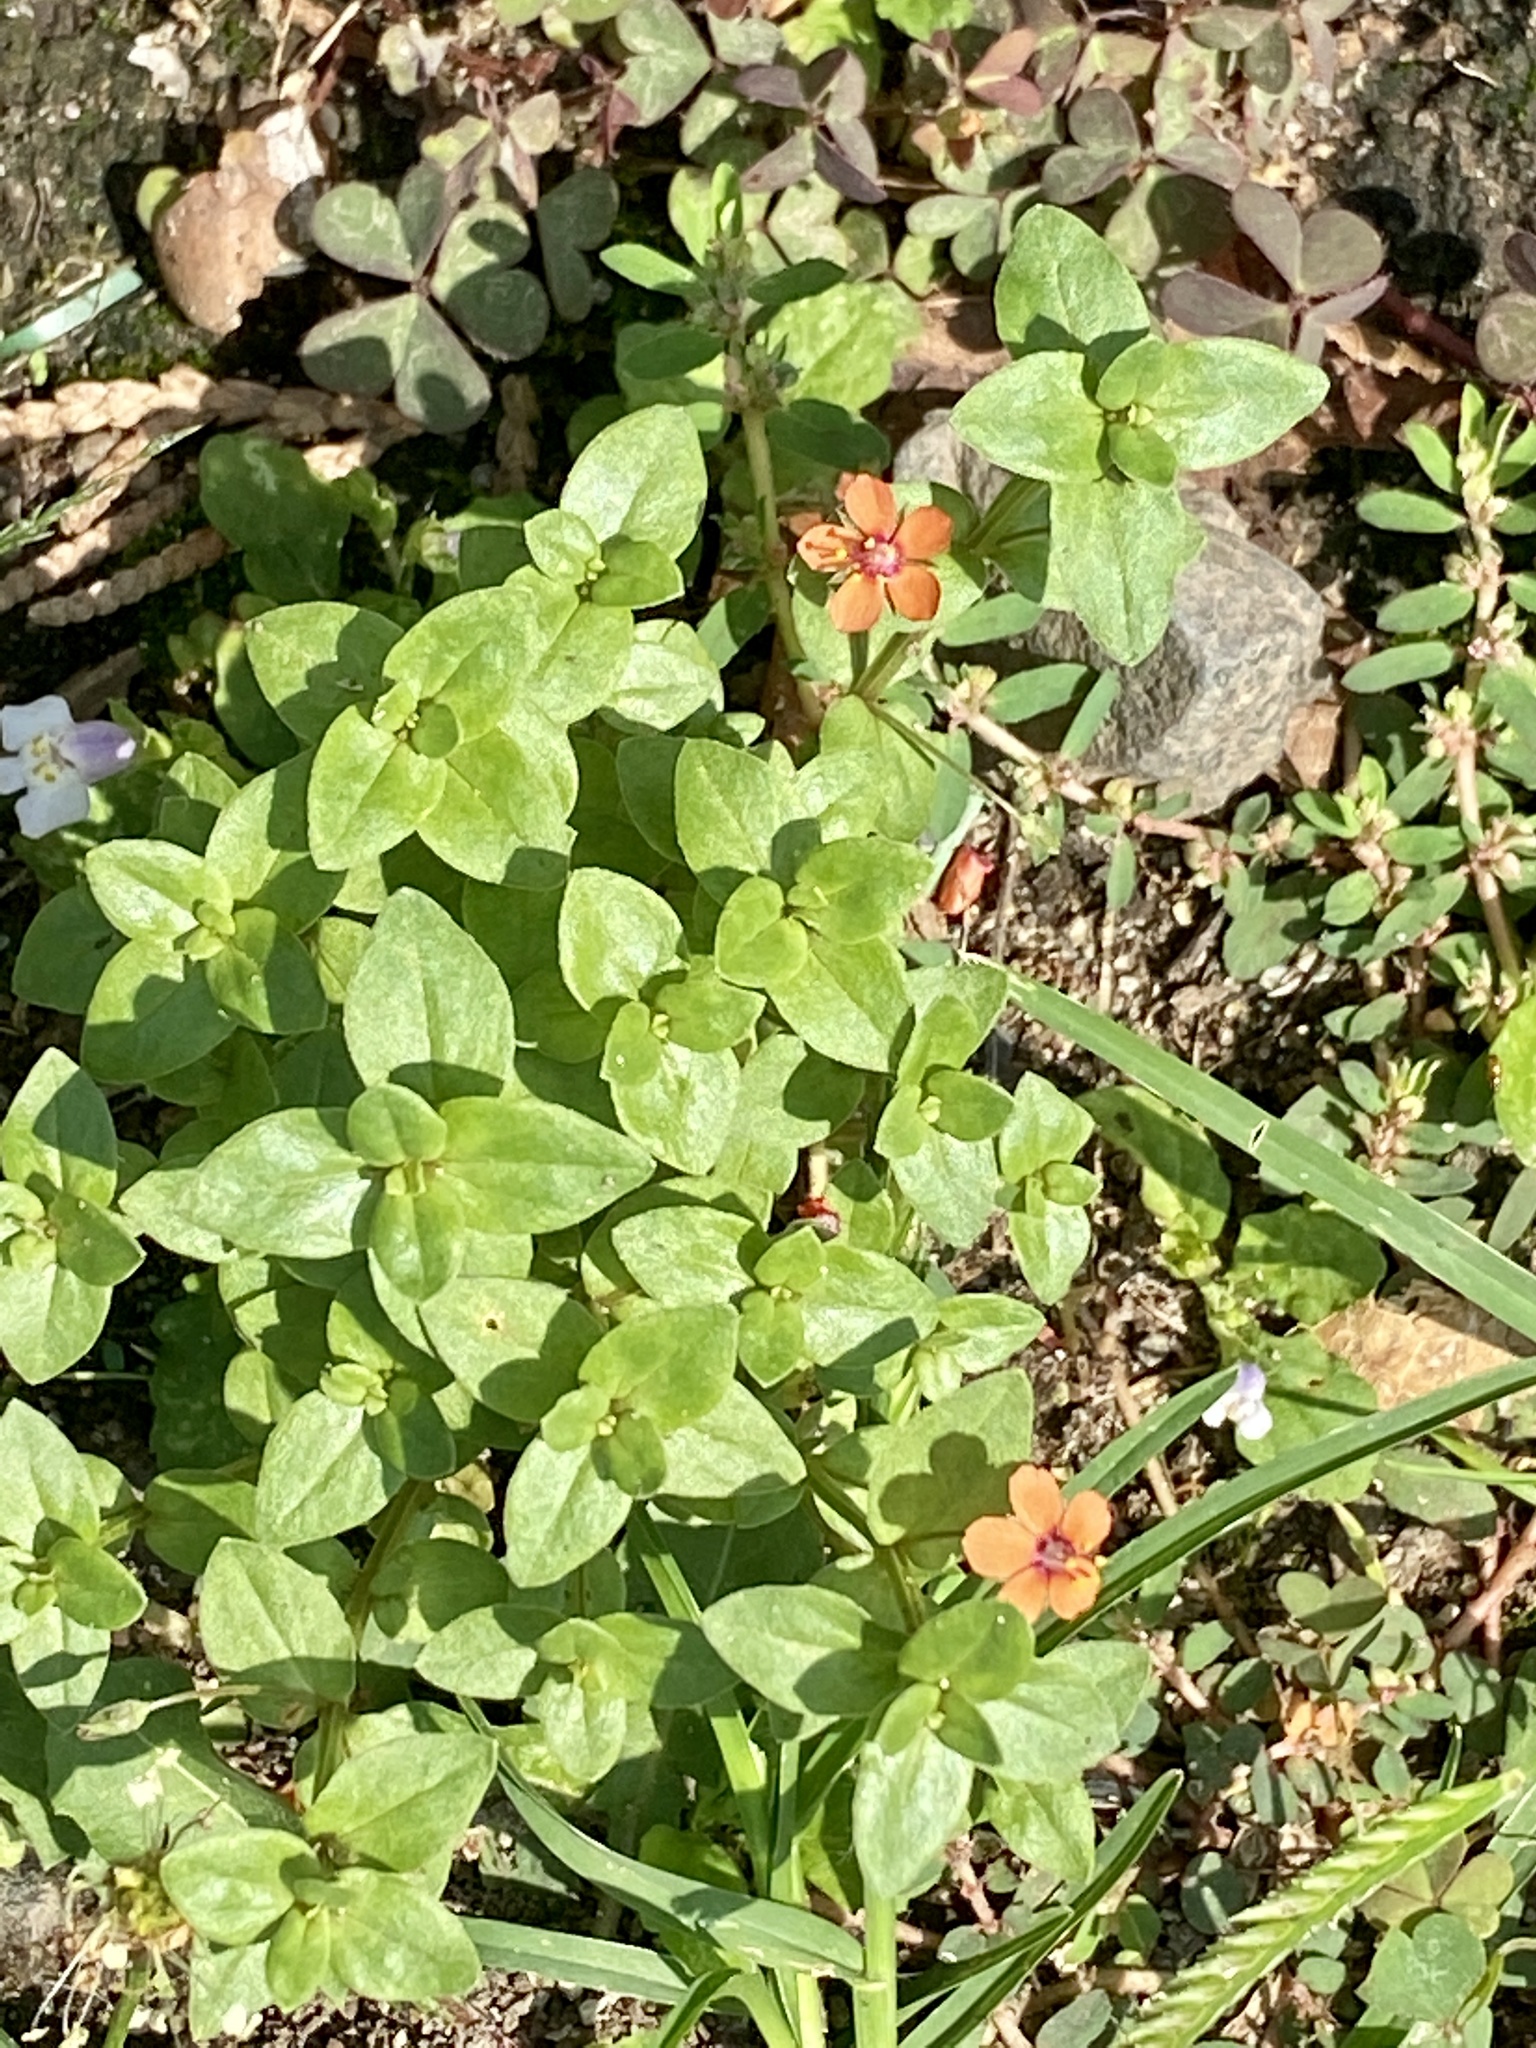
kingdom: Plantae
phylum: Tracheophyta
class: Magnoliopsida
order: Ericales
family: Primulaceae
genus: Lysimachia
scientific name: Lysimachia arvensis
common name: Scarlet pimpernel
